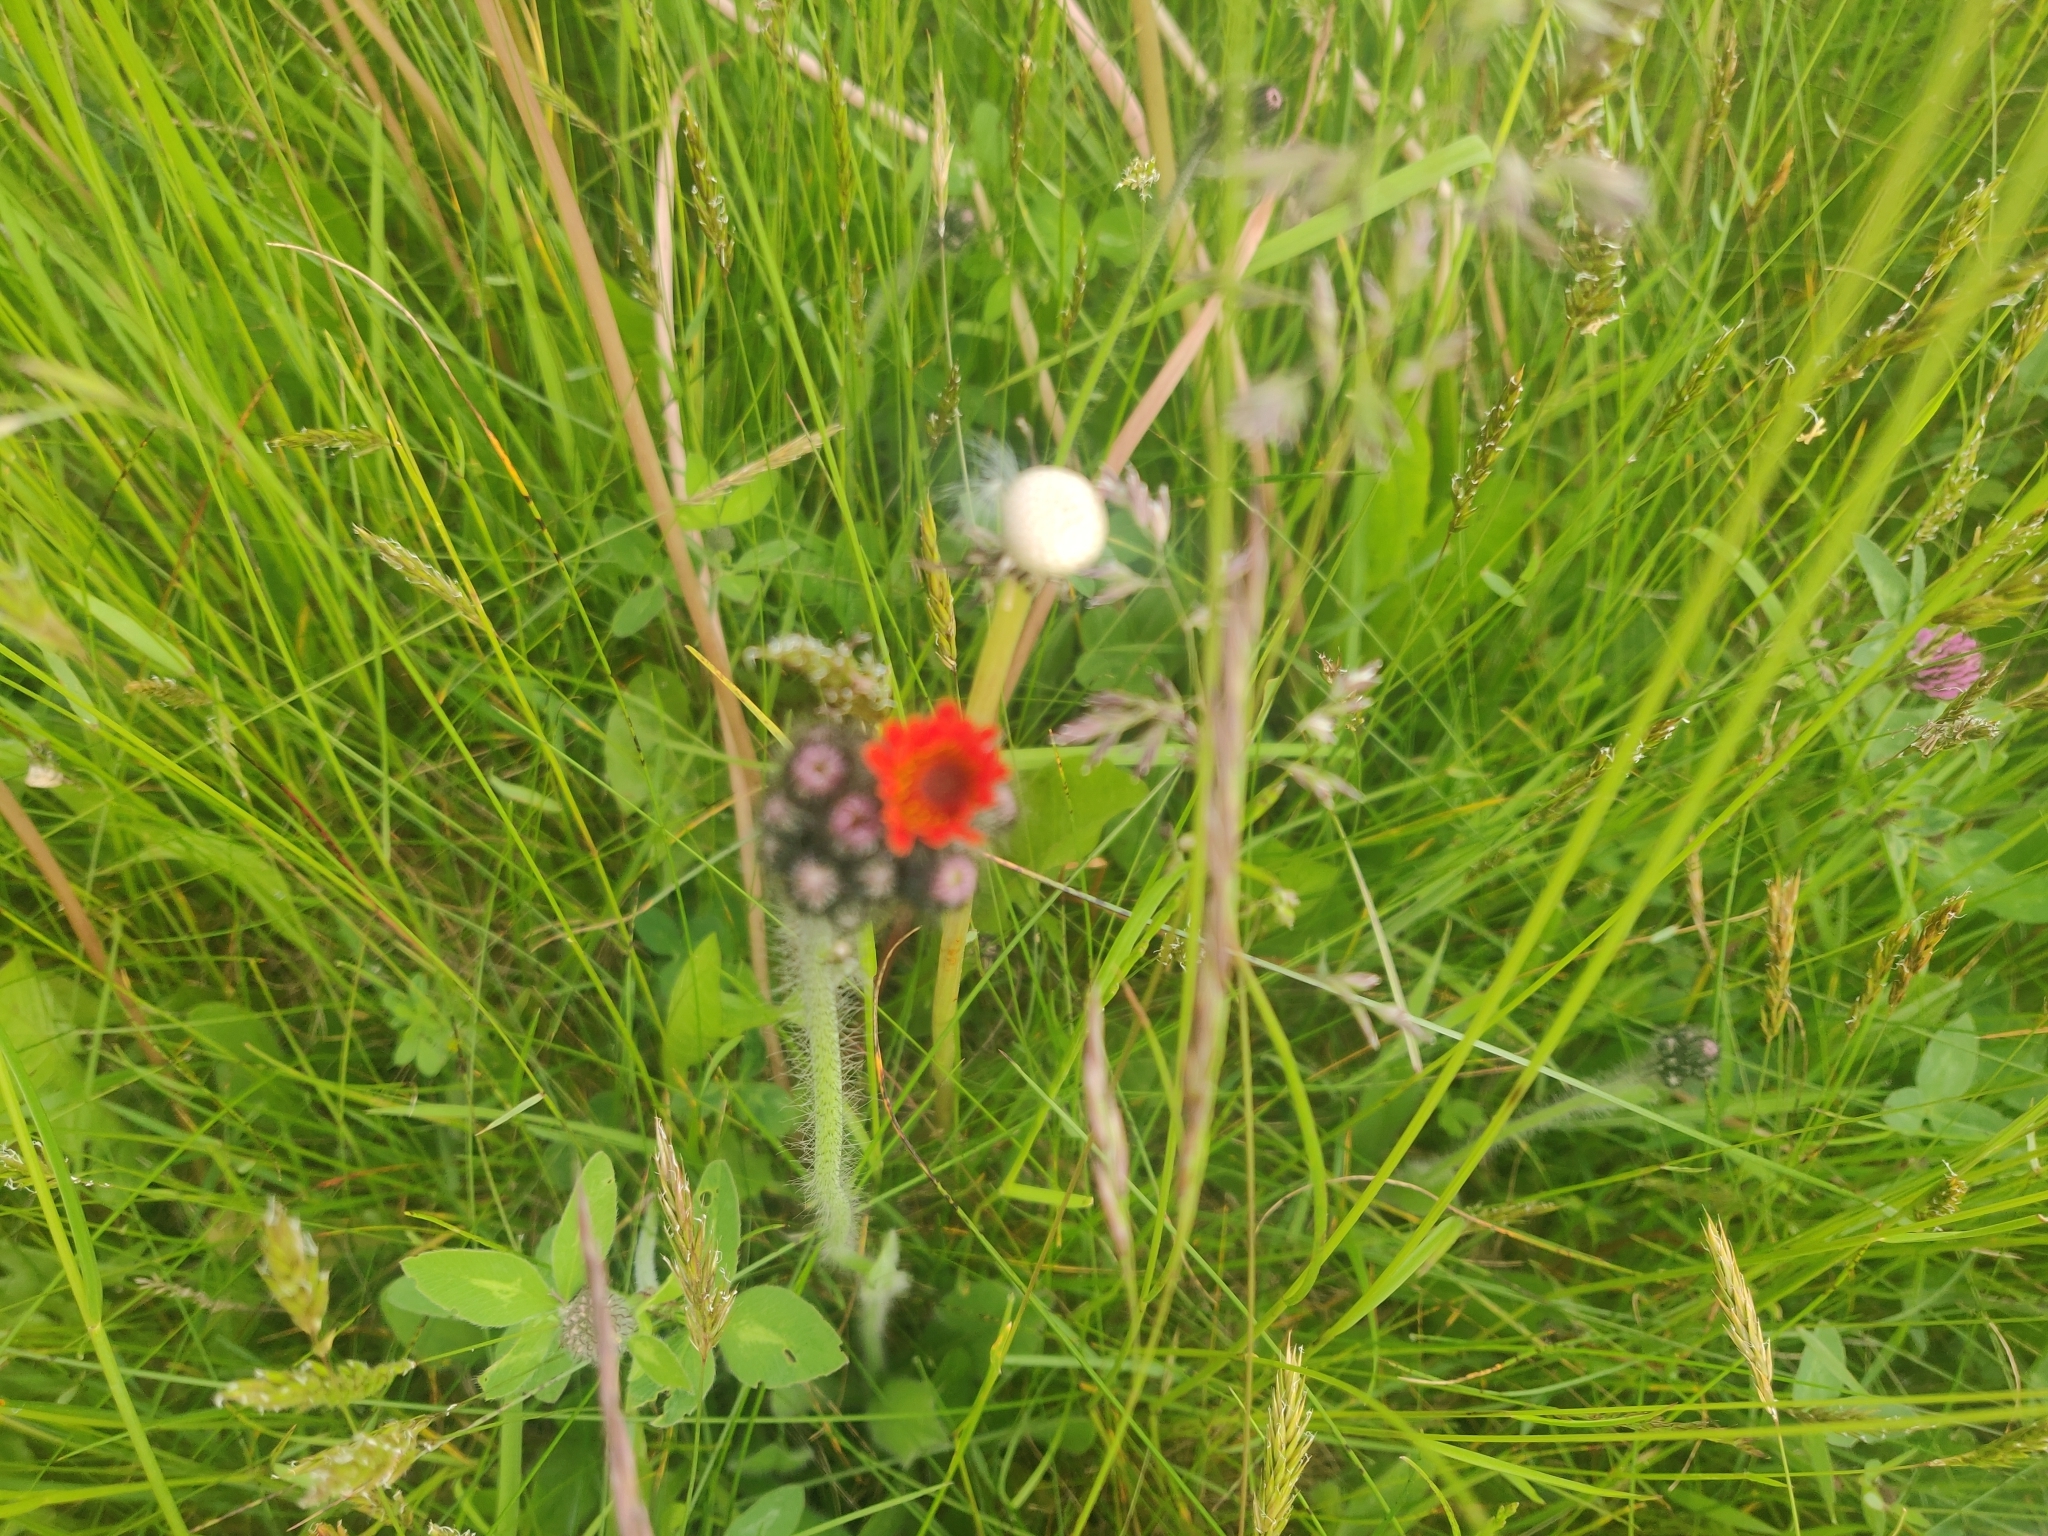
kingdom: Plantae
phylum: Tracheophyta
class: Magnoliopsida
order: Asterales
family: Asteraceae
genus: Pilosella
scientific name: Pilosella aurantiaca
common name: Fox-and-cubs
